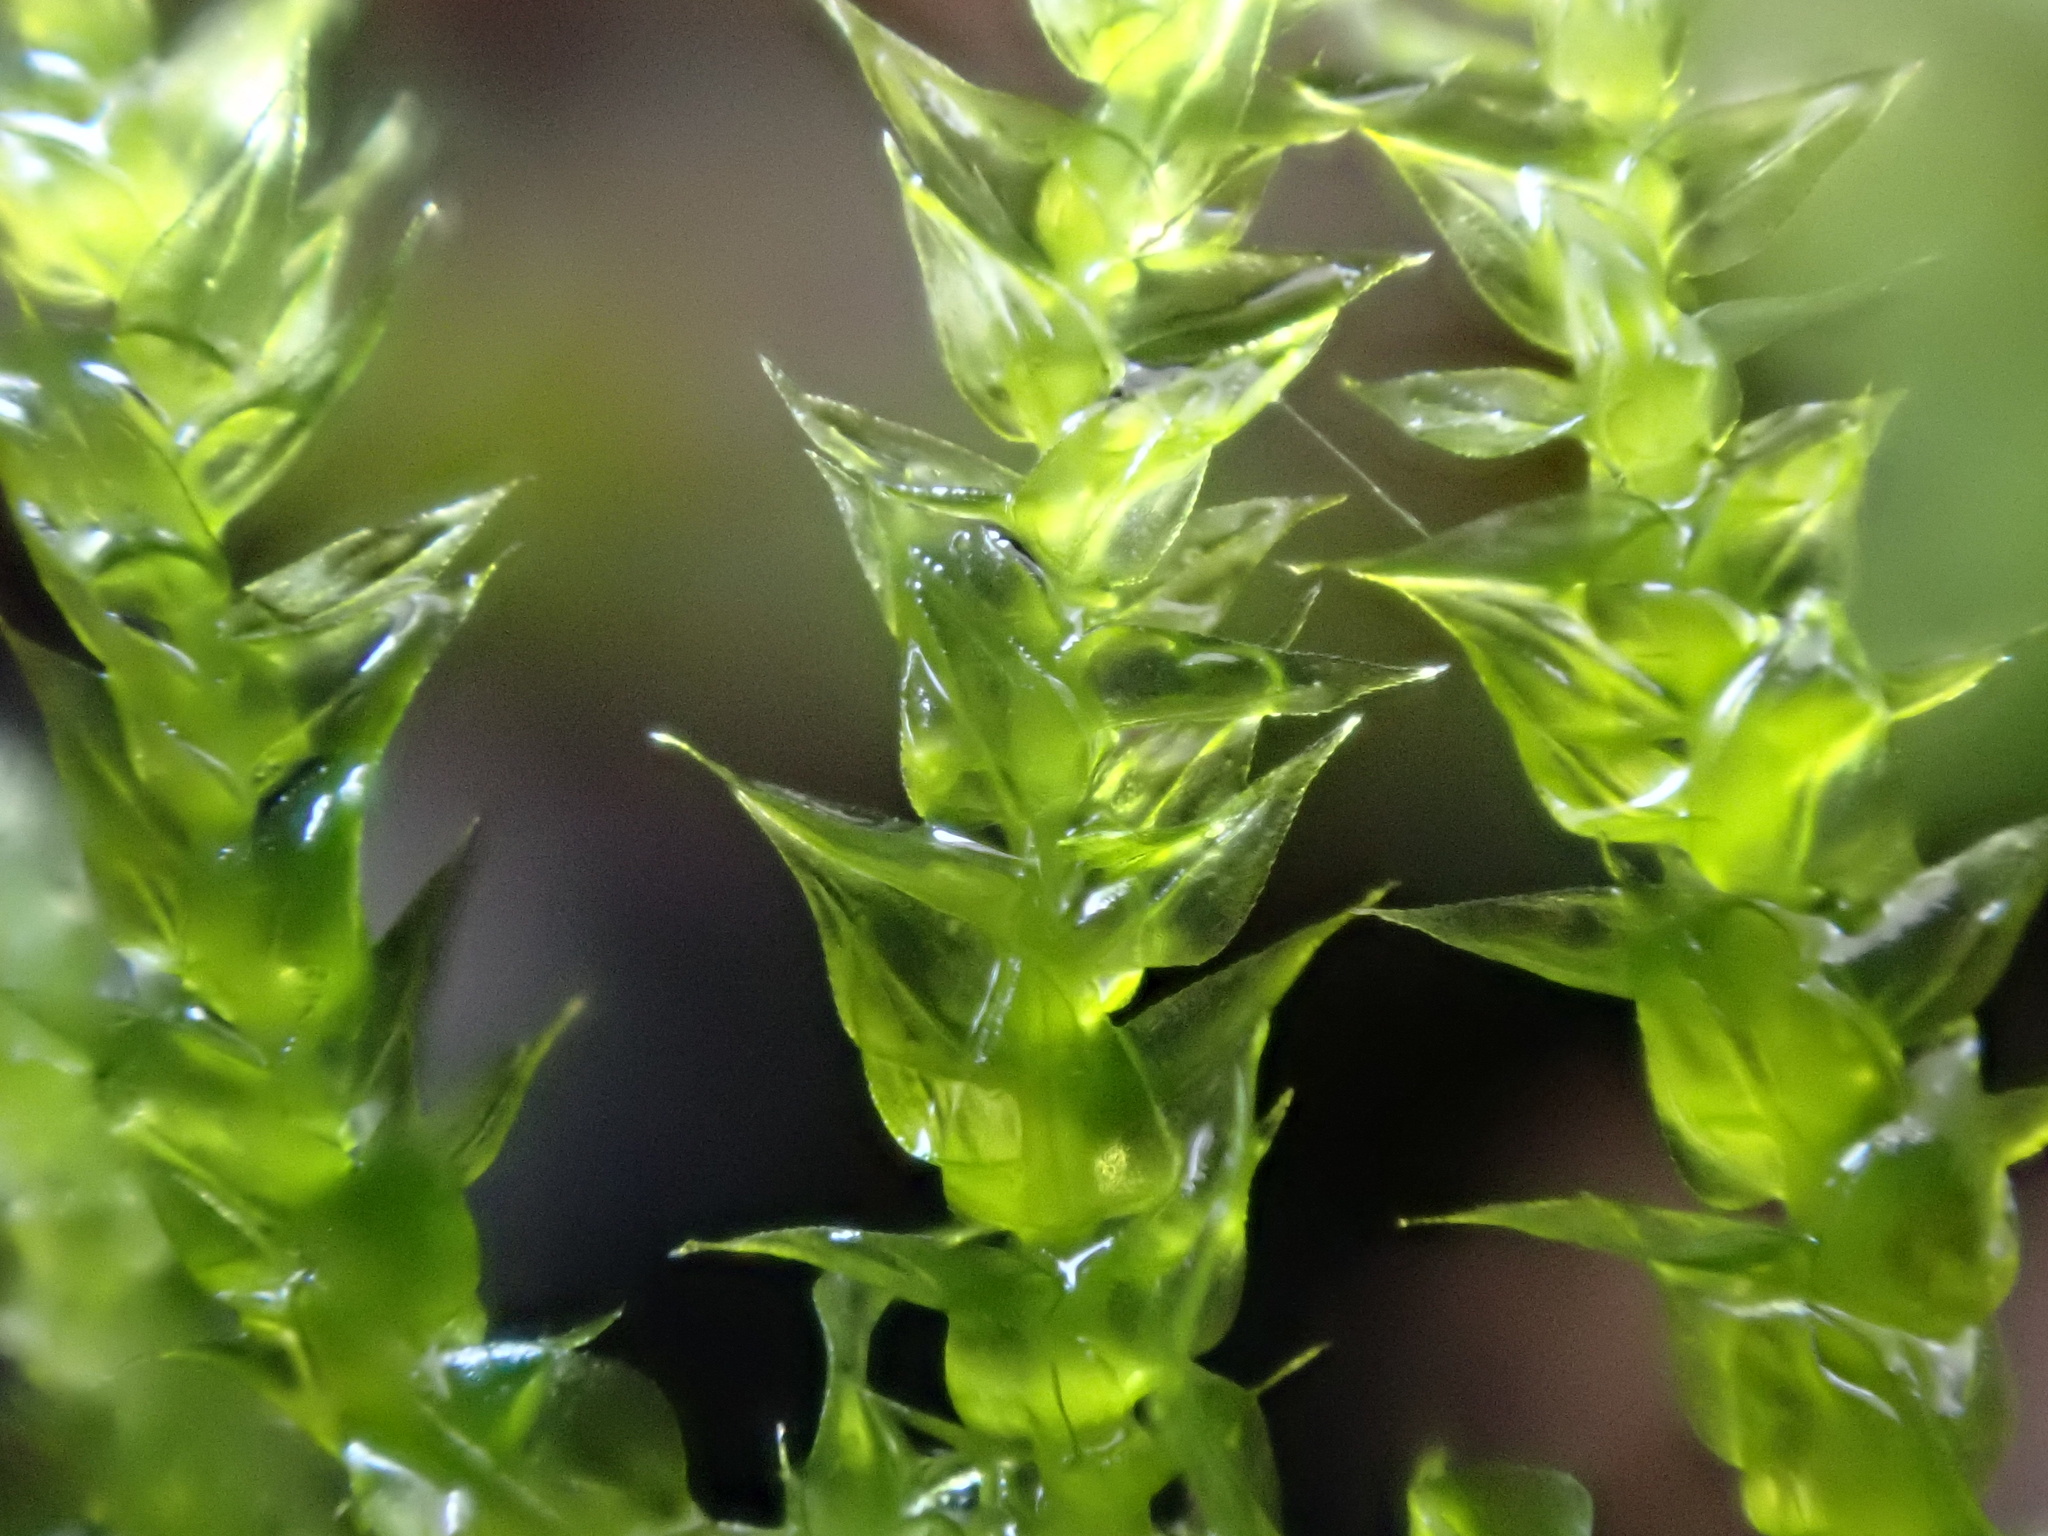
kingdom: Plantae
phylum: Bryophyta
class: Bryopsida
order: Hypnales
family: Brachytheciaceae
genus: Kindbergia
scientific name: Kindbergia praelonga
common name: Slender beaked moss
